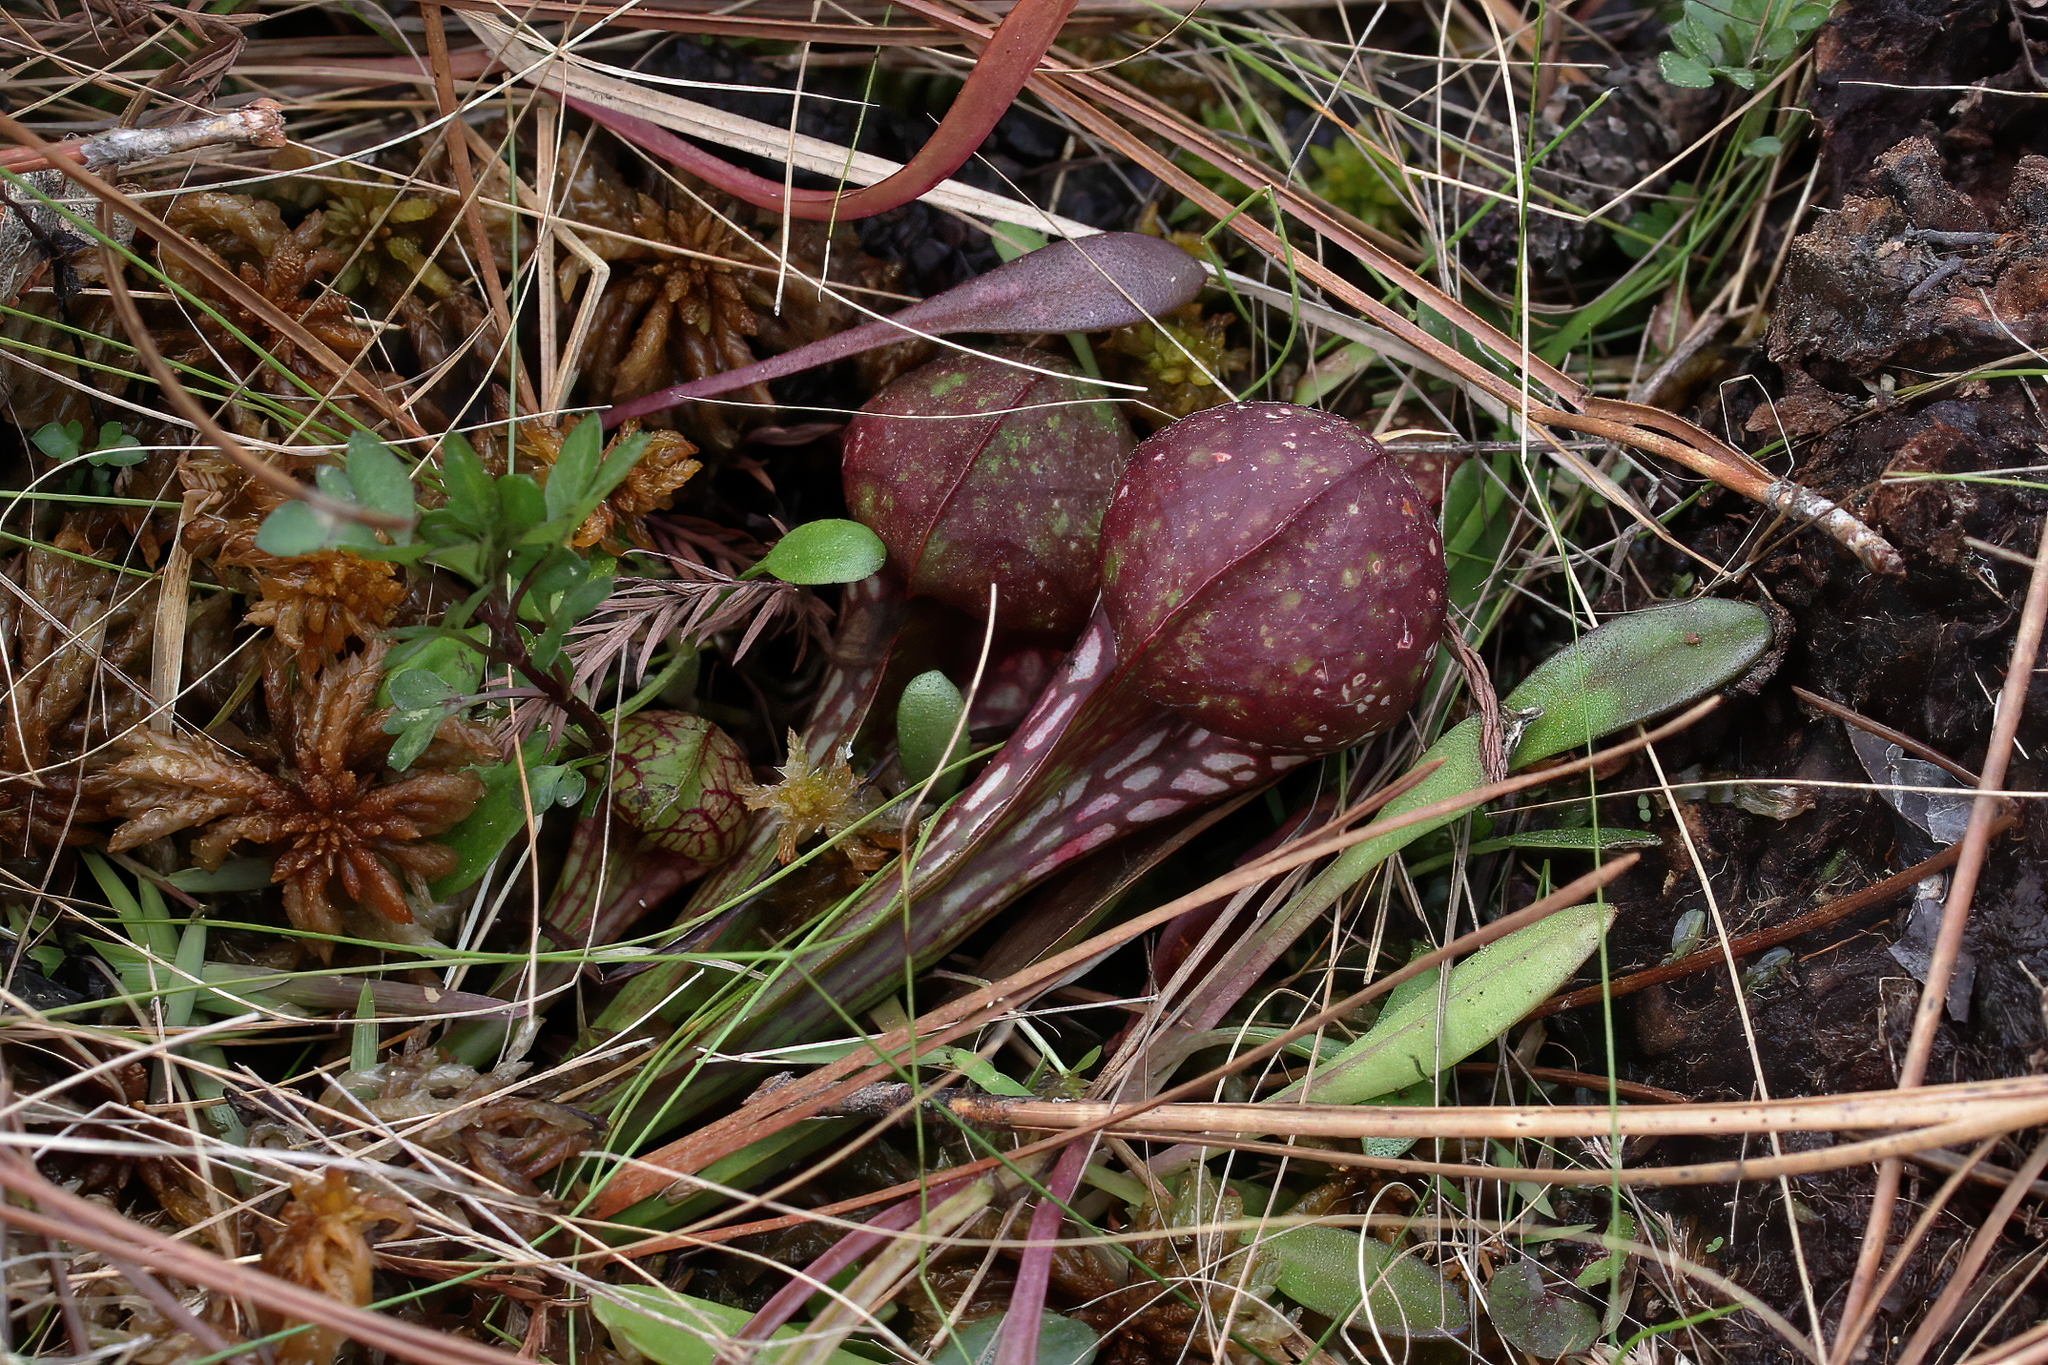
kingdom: Plantae
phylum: Tracheophyta
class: Magnoliopsida
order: Ericales
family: Sarraceniaceae
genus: Sarracenia
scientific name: Sarracenia psittacina
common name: Parrot pitcherplant
